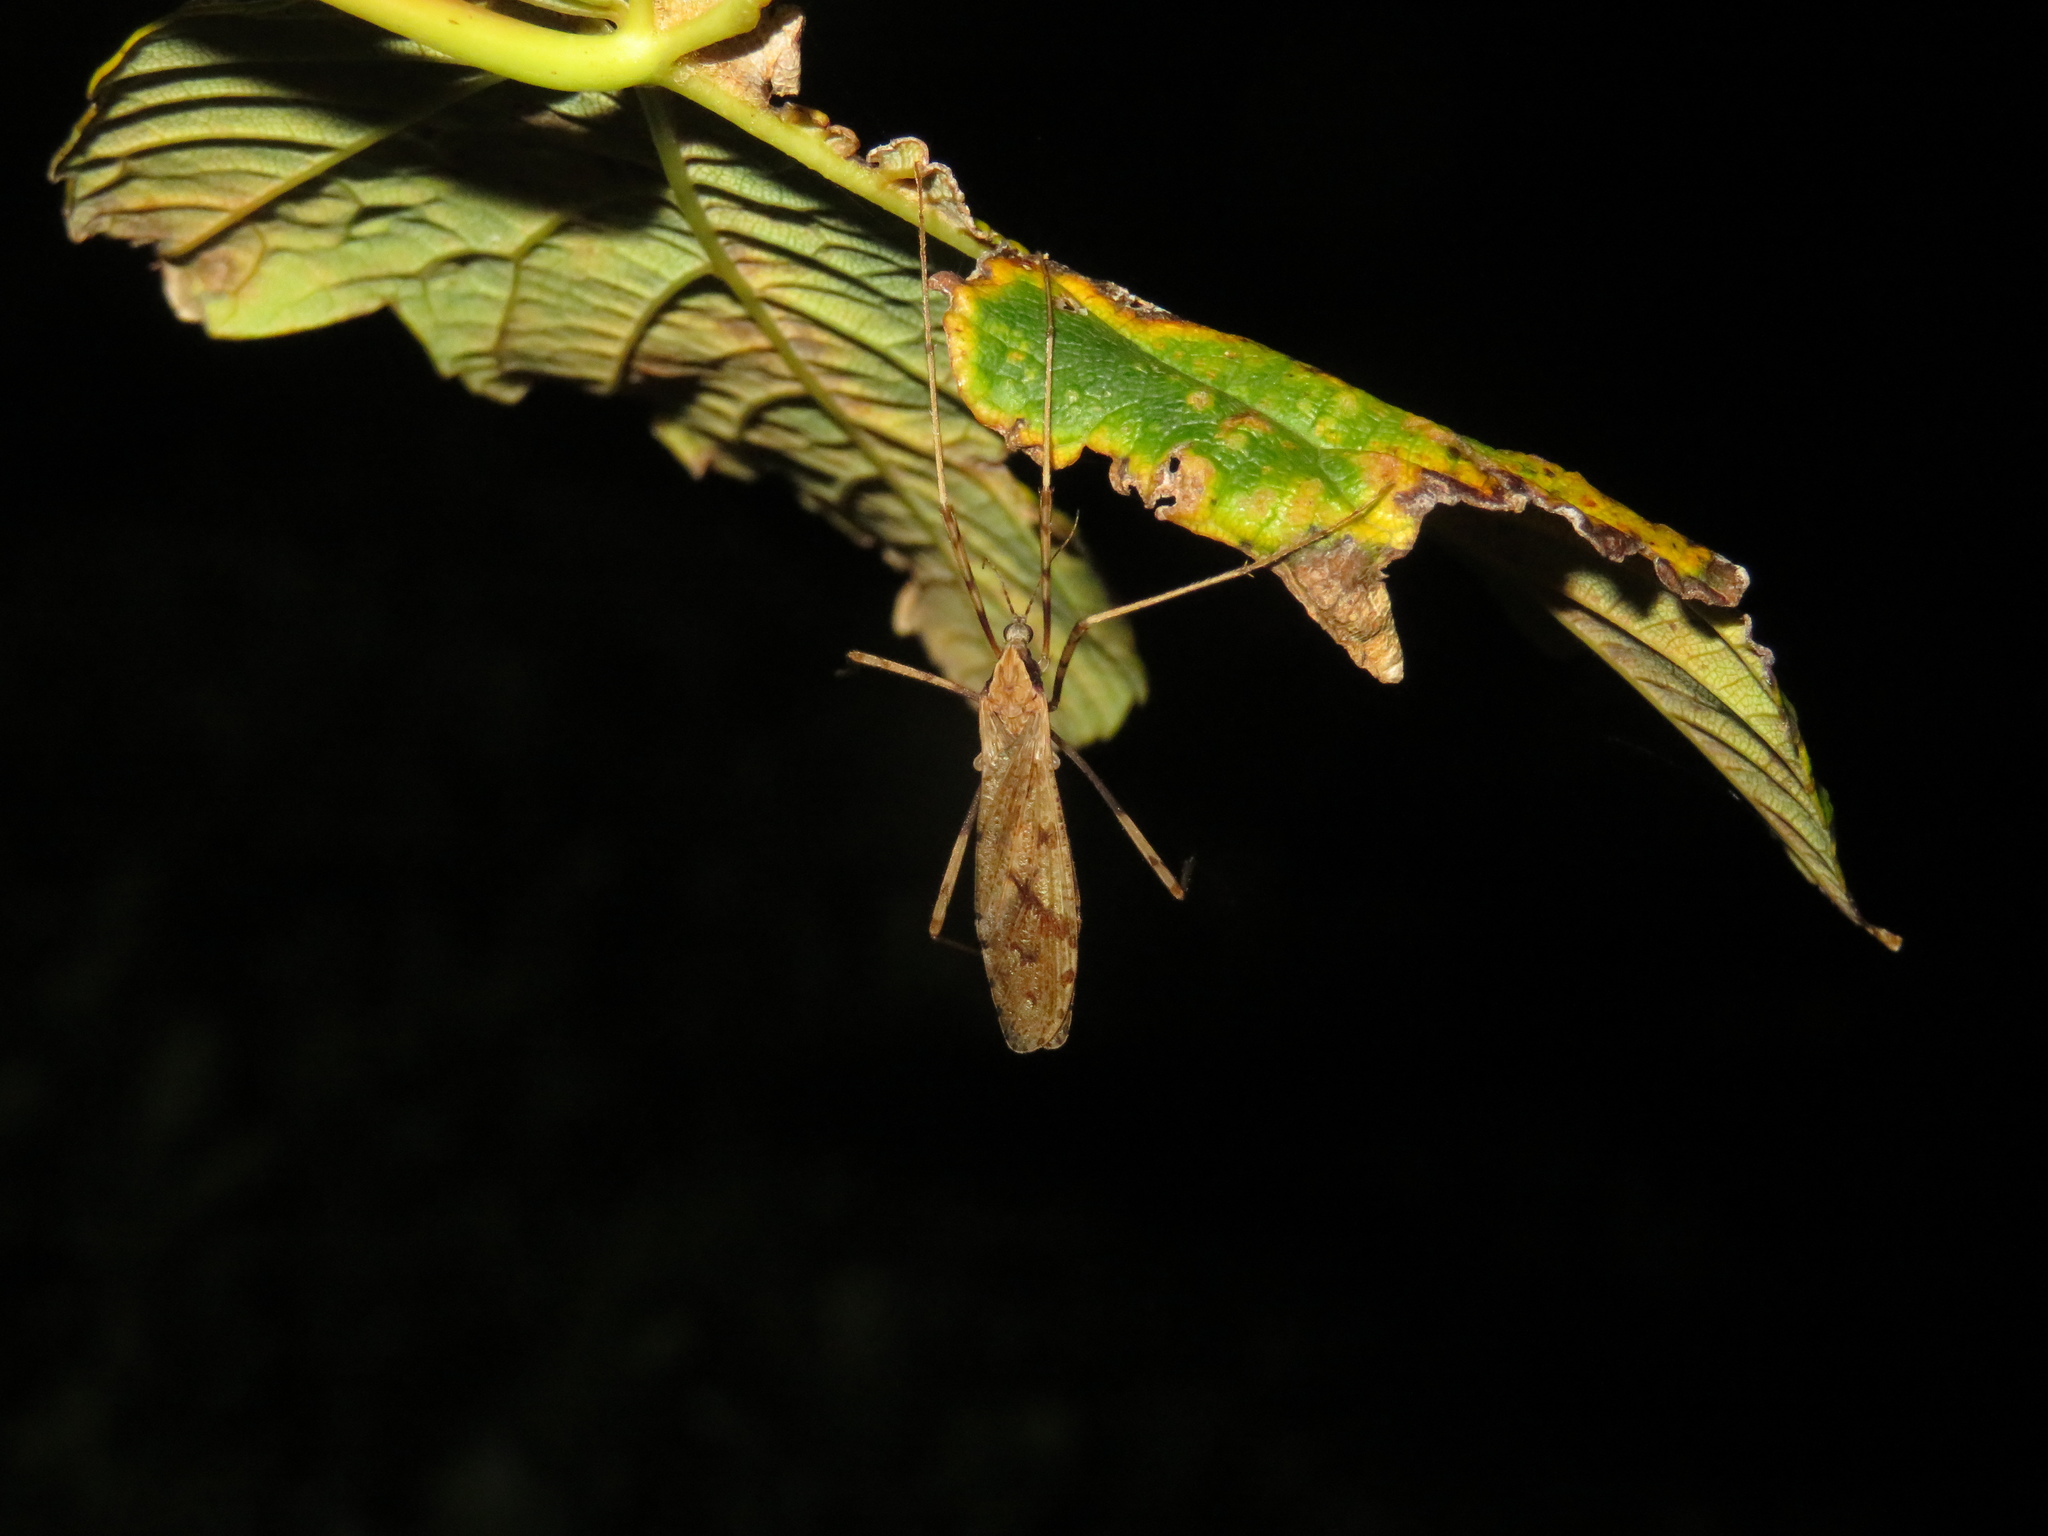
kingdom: Animalia
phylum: Arthropoda
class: Insecta
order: Diptera
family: Limoniidae
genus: Rhamphophila
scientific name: Rhamphophila sinistra
